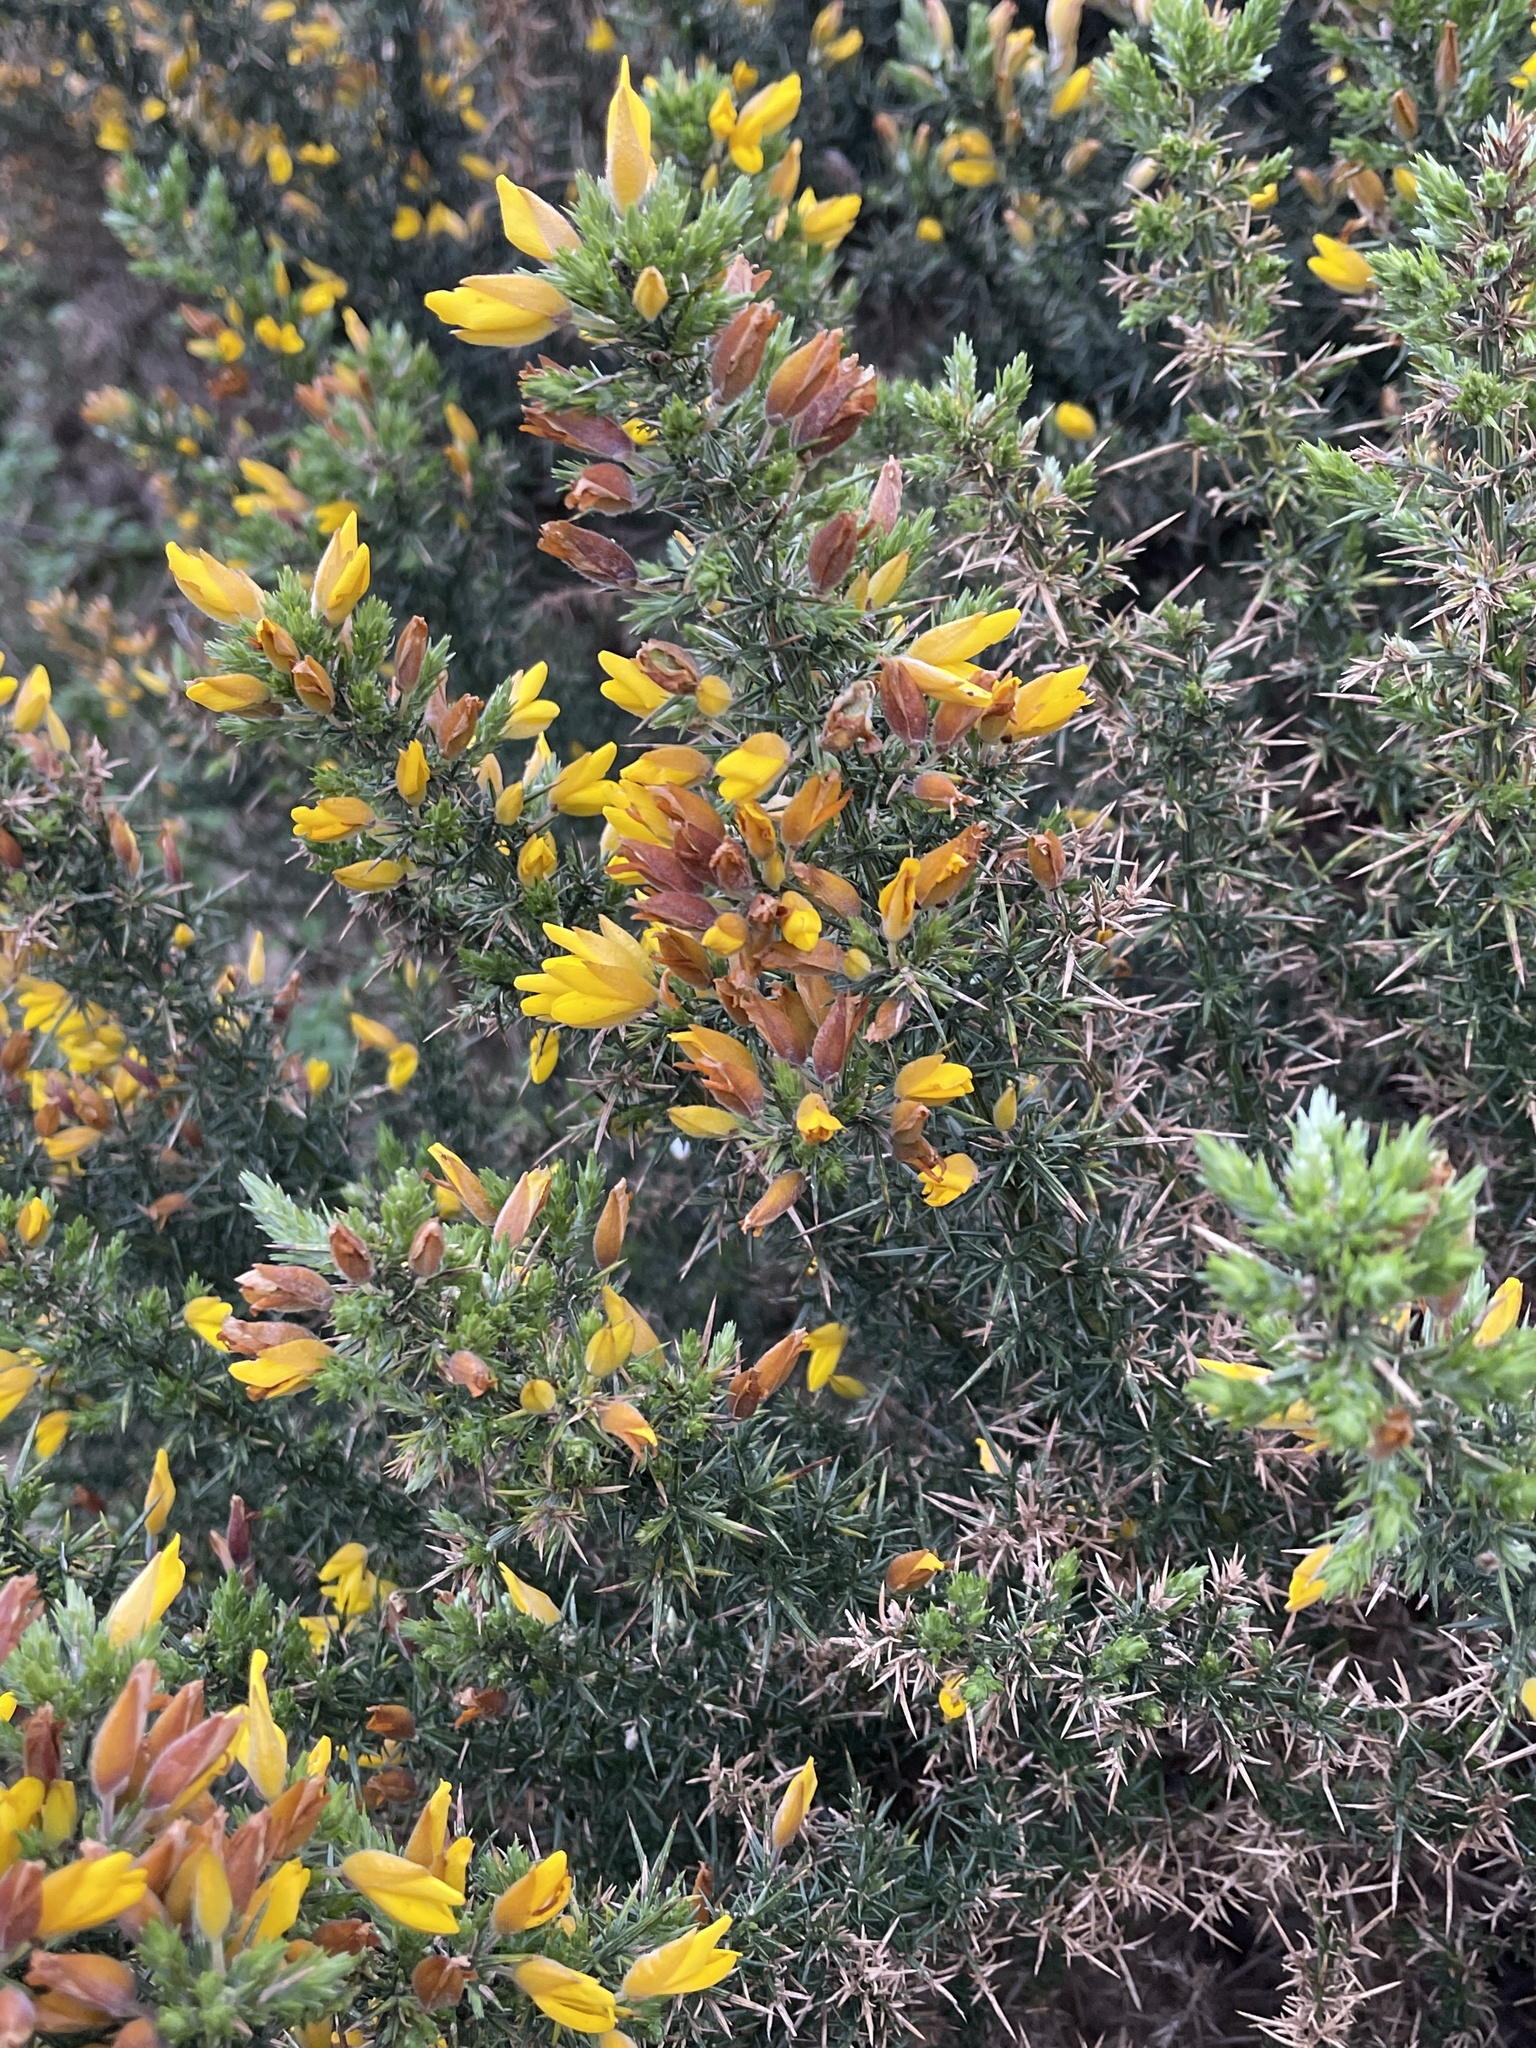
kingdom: Plantae
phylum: Tracheophyta
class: Magnoliopsida
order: Fabales
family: Fabaceae
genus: Ulex
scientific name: Ulex europaeus
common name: Common gorse
